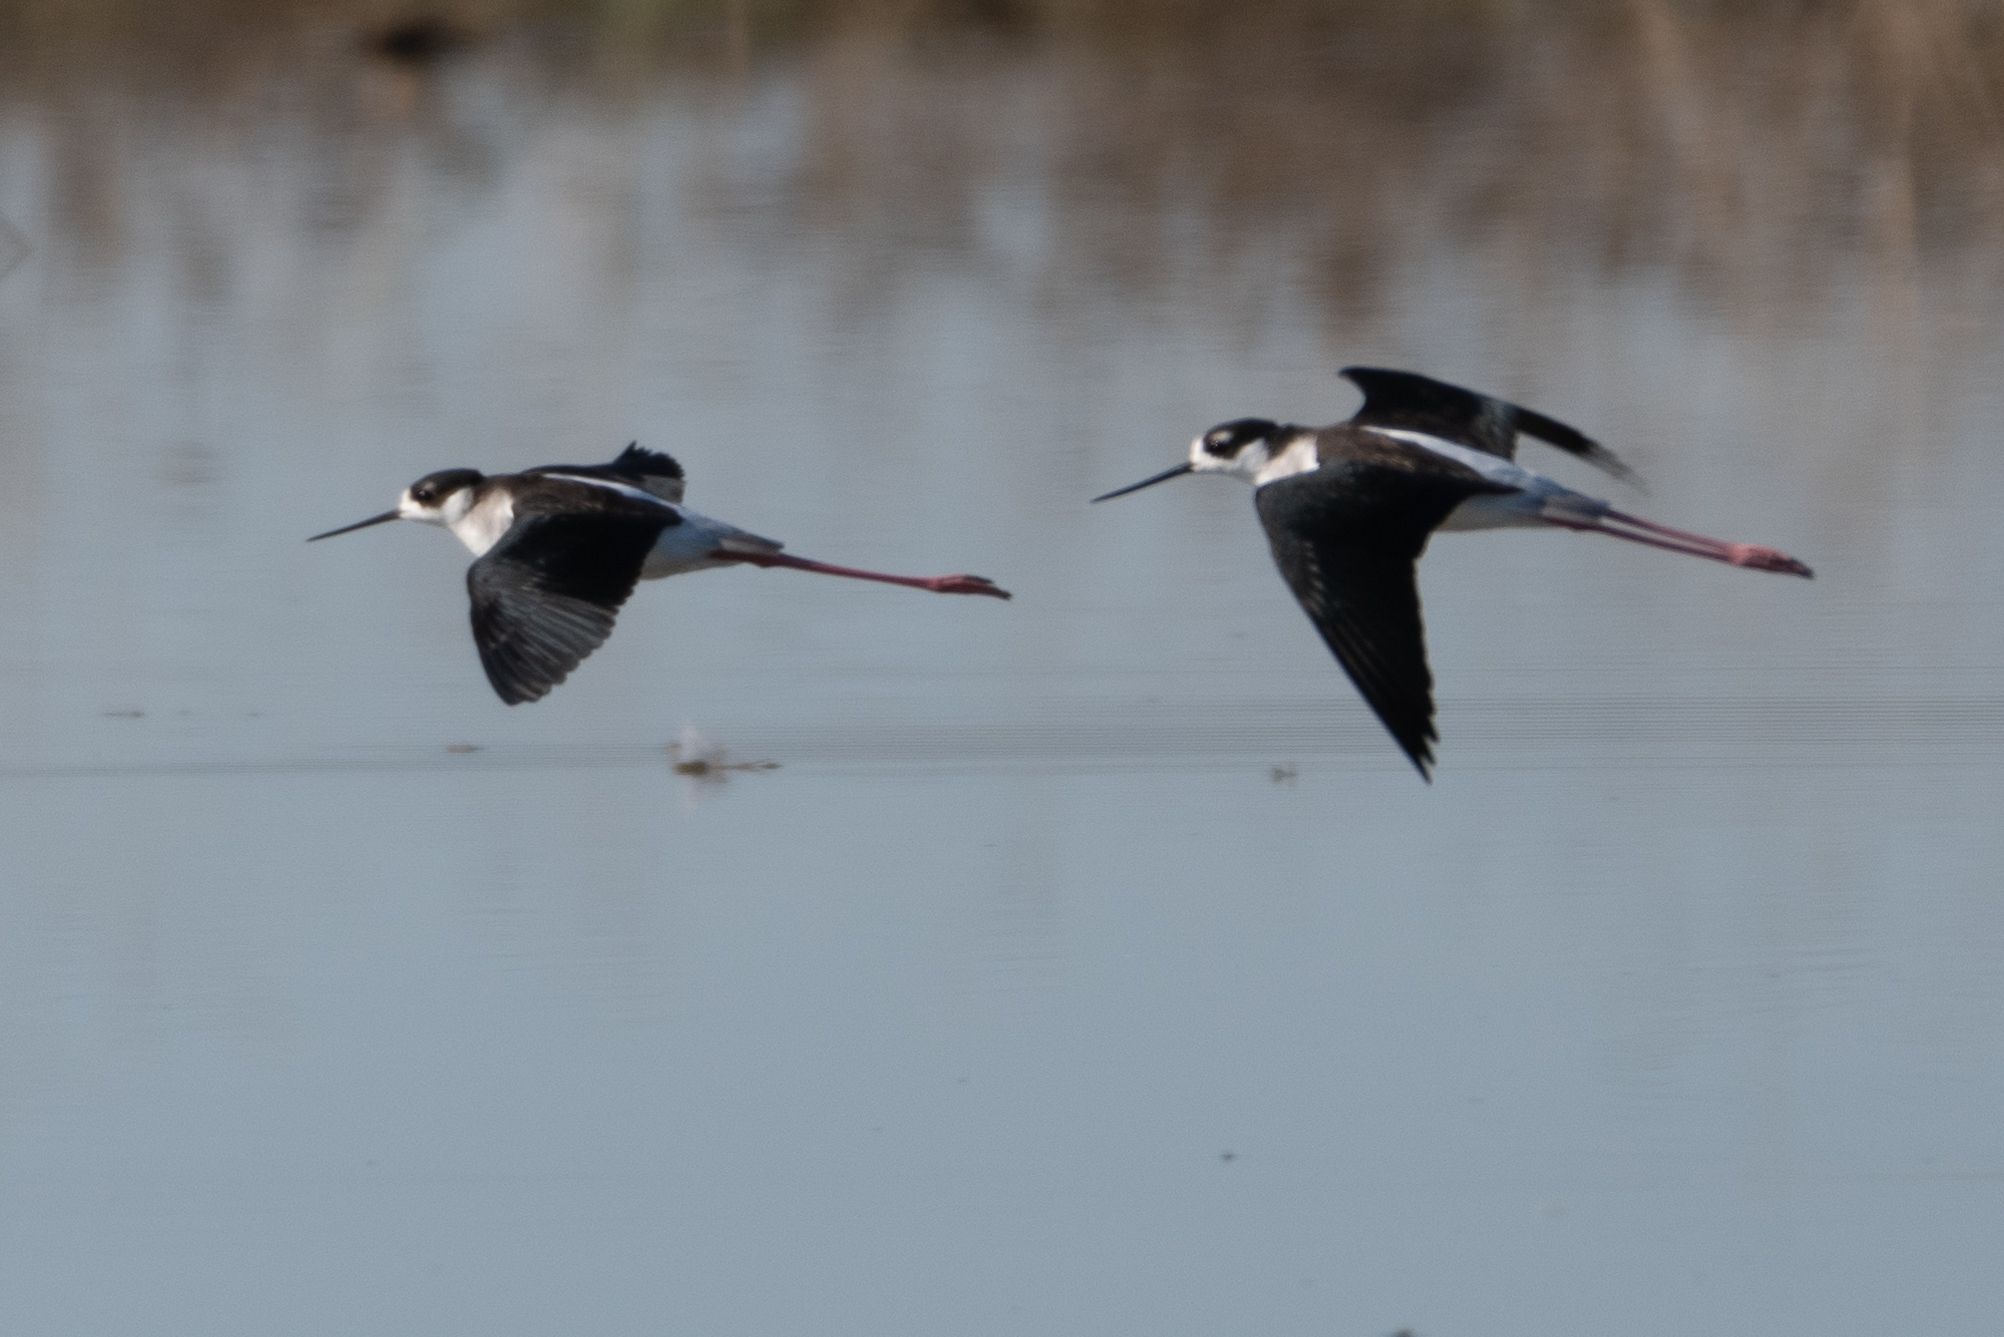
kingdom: Animalia
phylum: Chordata
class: Aves
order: Charadriiformes
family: Recurvirostridae
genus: Himantopus
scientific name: Himantopus mexicanus
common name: Black-necked stilt
